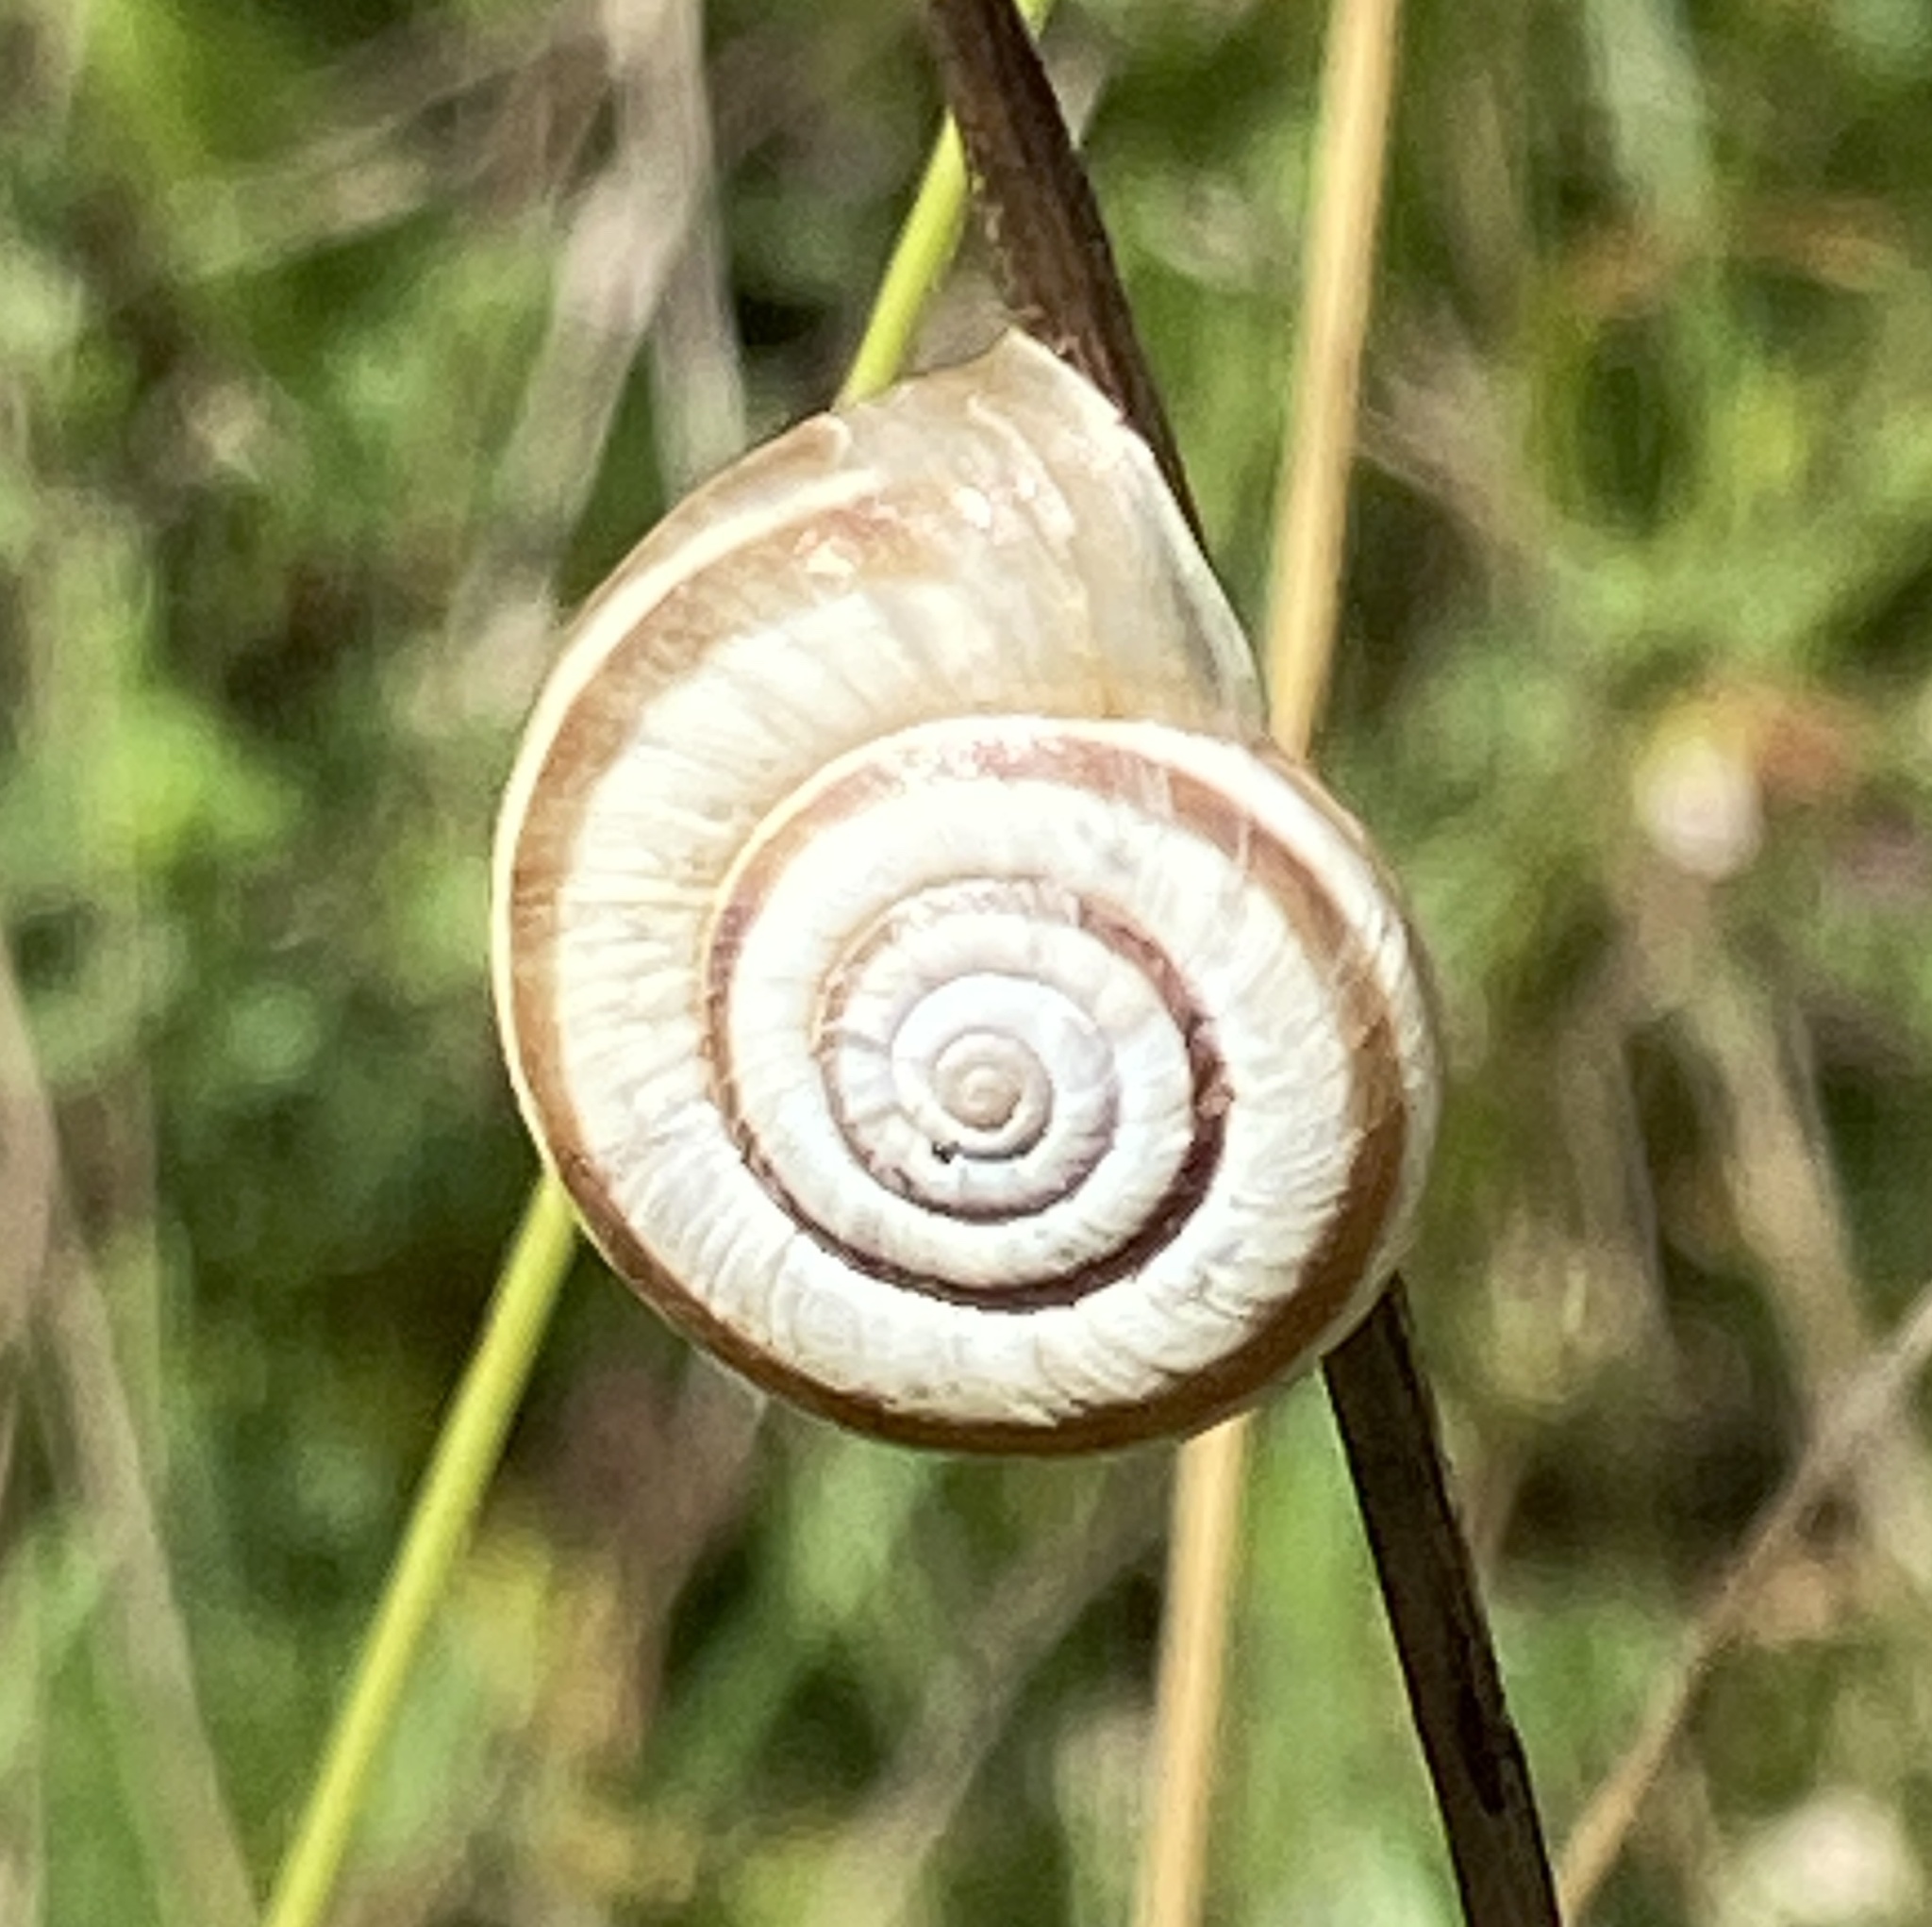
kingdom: Animalia
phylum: Mollusca
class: Gastropoda
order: Stylommatophora
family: Geomitridae
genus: Helicella
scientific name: Helicella itala
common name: Heath snail
